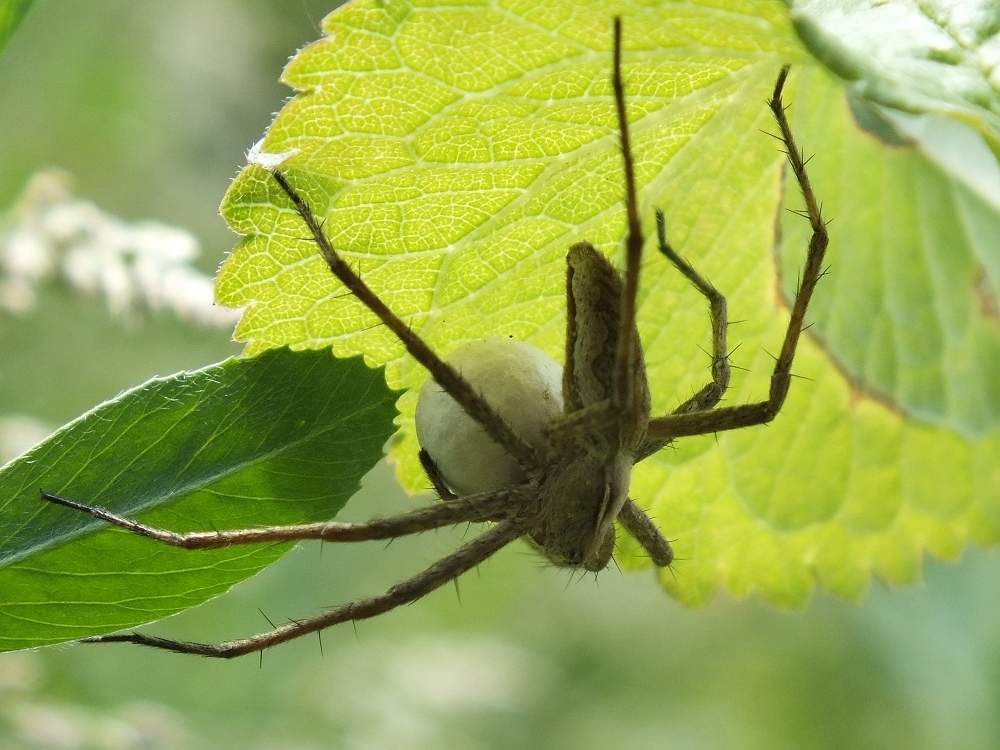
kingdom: Animalia
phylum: Arthropoda
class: Arachnida
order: Araneae
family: Pisauridae
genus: Pisaura
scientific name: Pisaura
